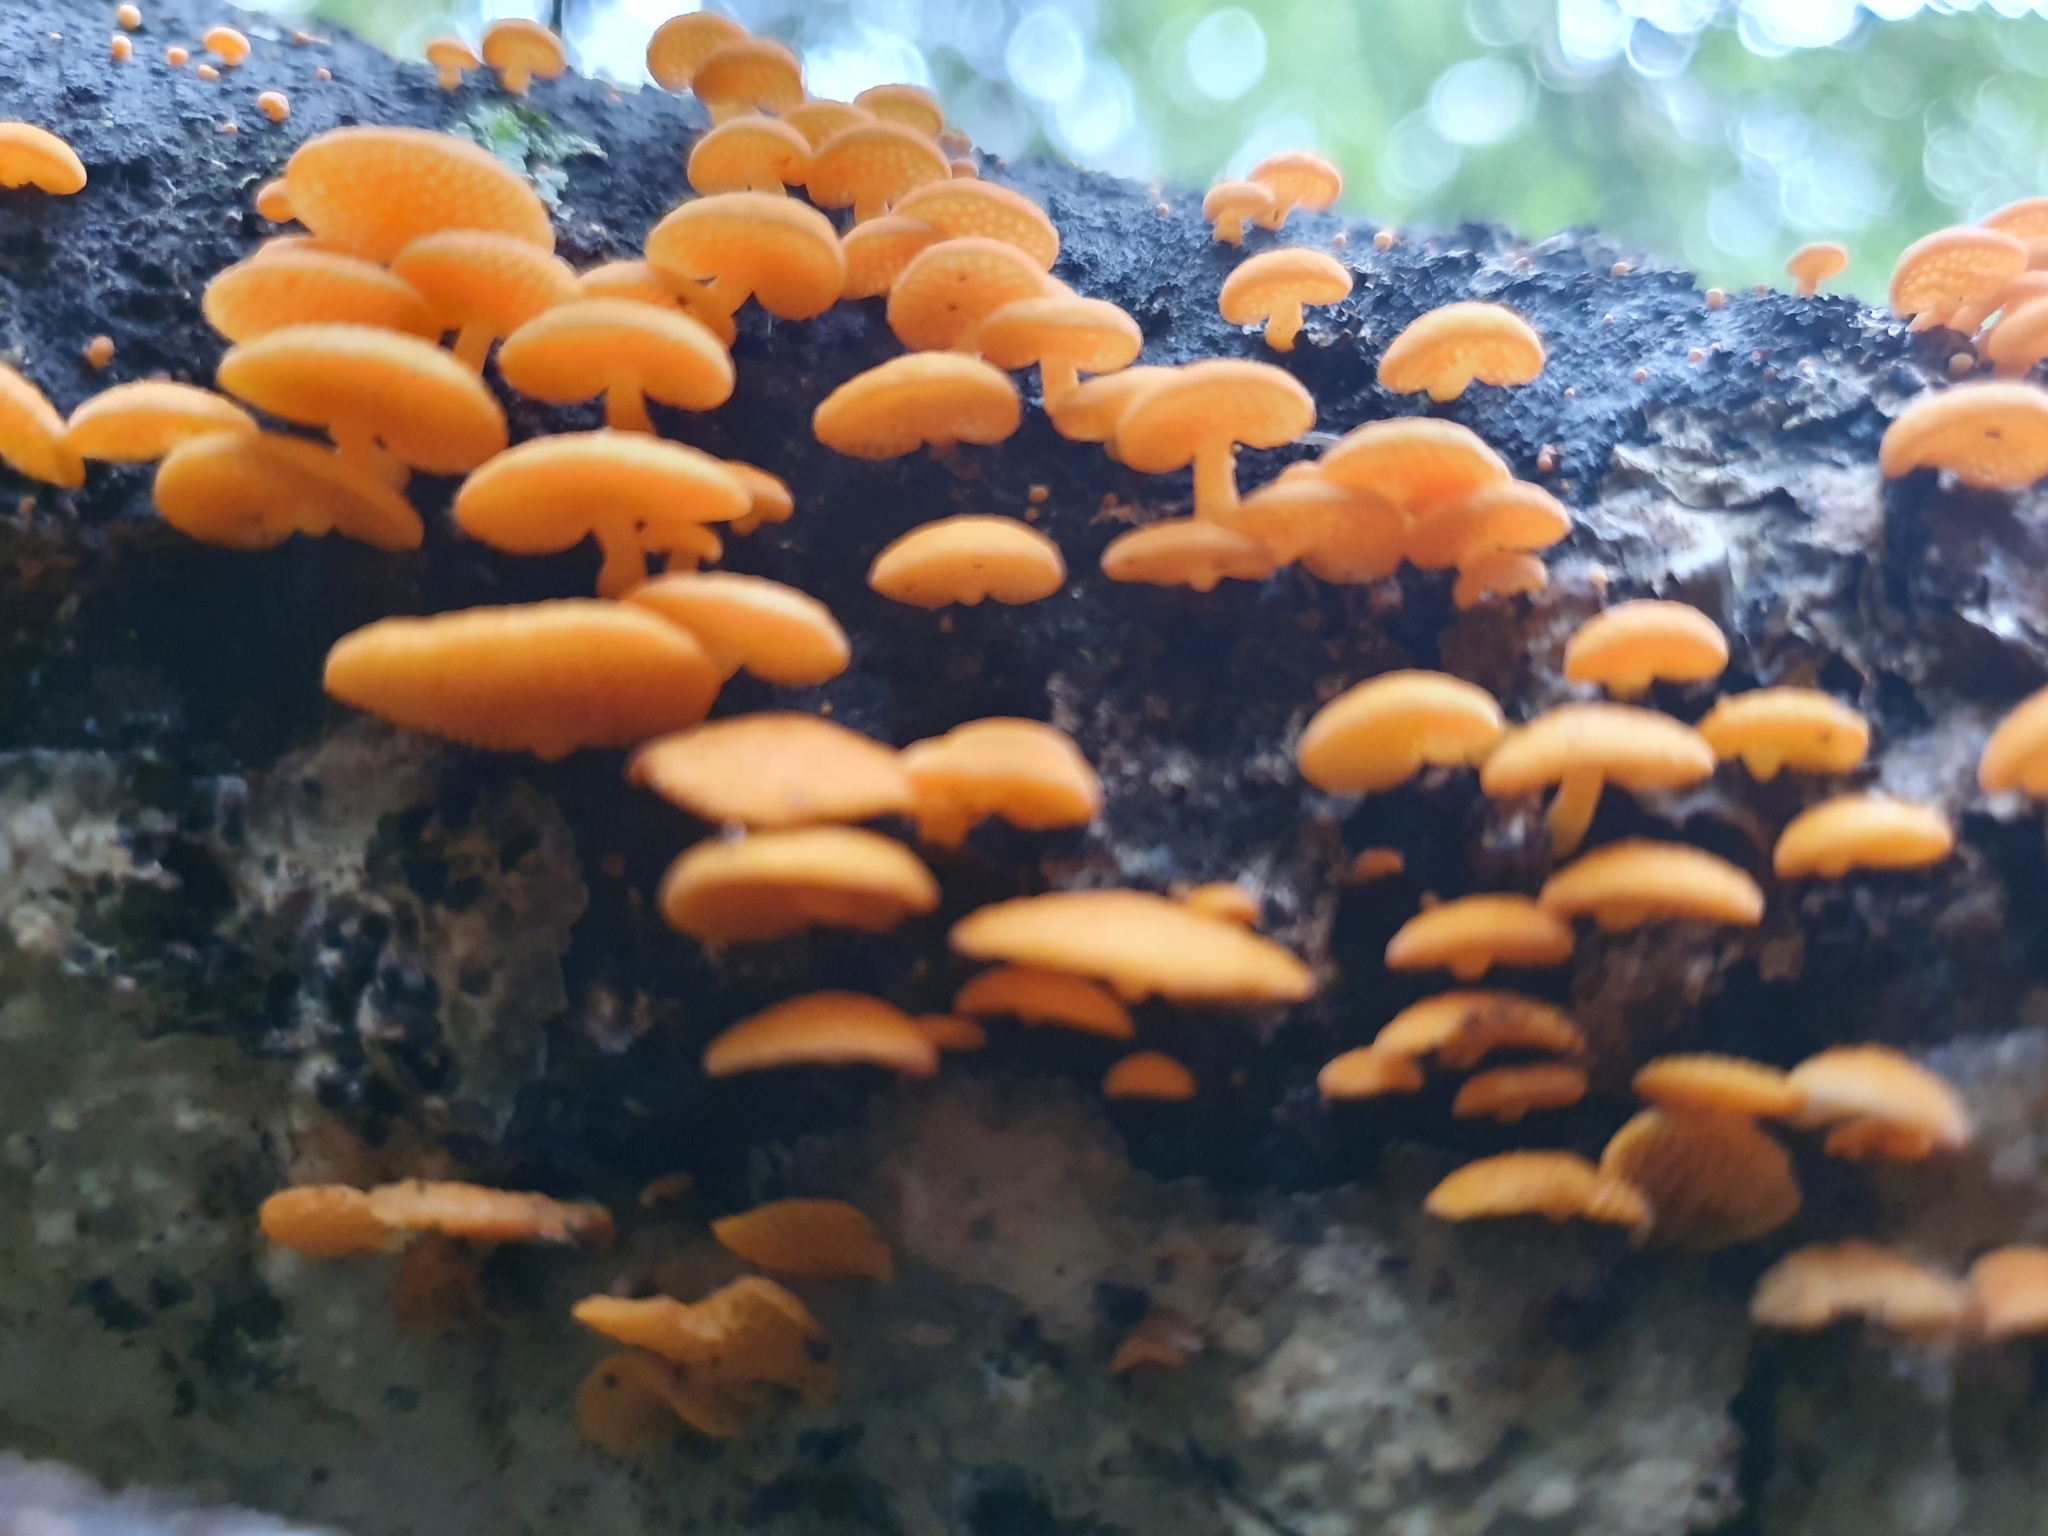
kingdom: Fungi
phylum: Basidiomycota
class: Agaricomycetes
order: Agaricales
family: Mycenaceae
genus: Favolaschia
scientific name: Favolaschia claudopus
